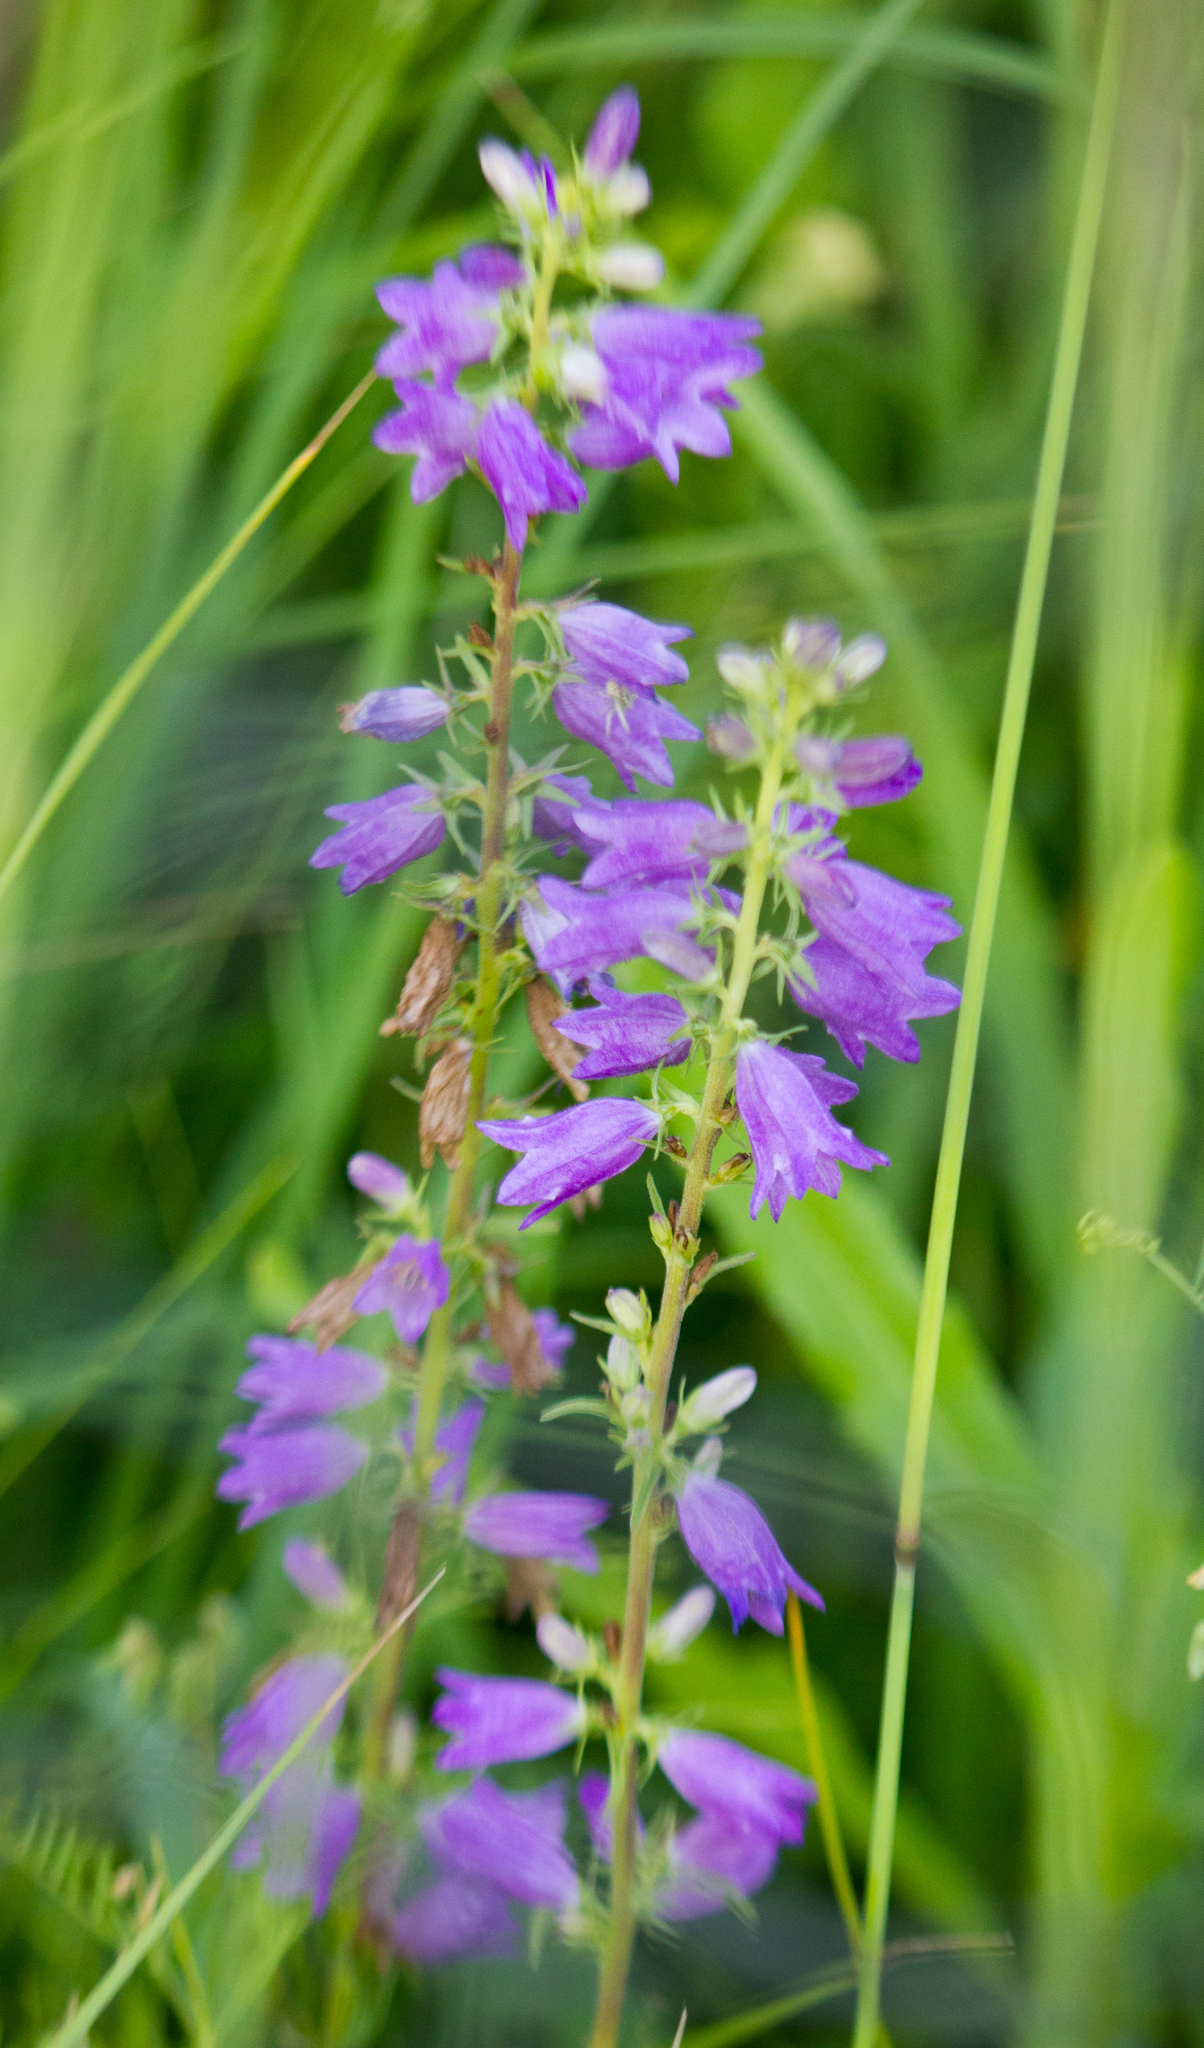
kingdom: Plantae
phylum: Tracheophyta
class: Magnoliopsida
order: Asterales
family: Campanulaceae
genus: Campanula
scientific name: Campanula bononiensis
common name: Pale bellflower
